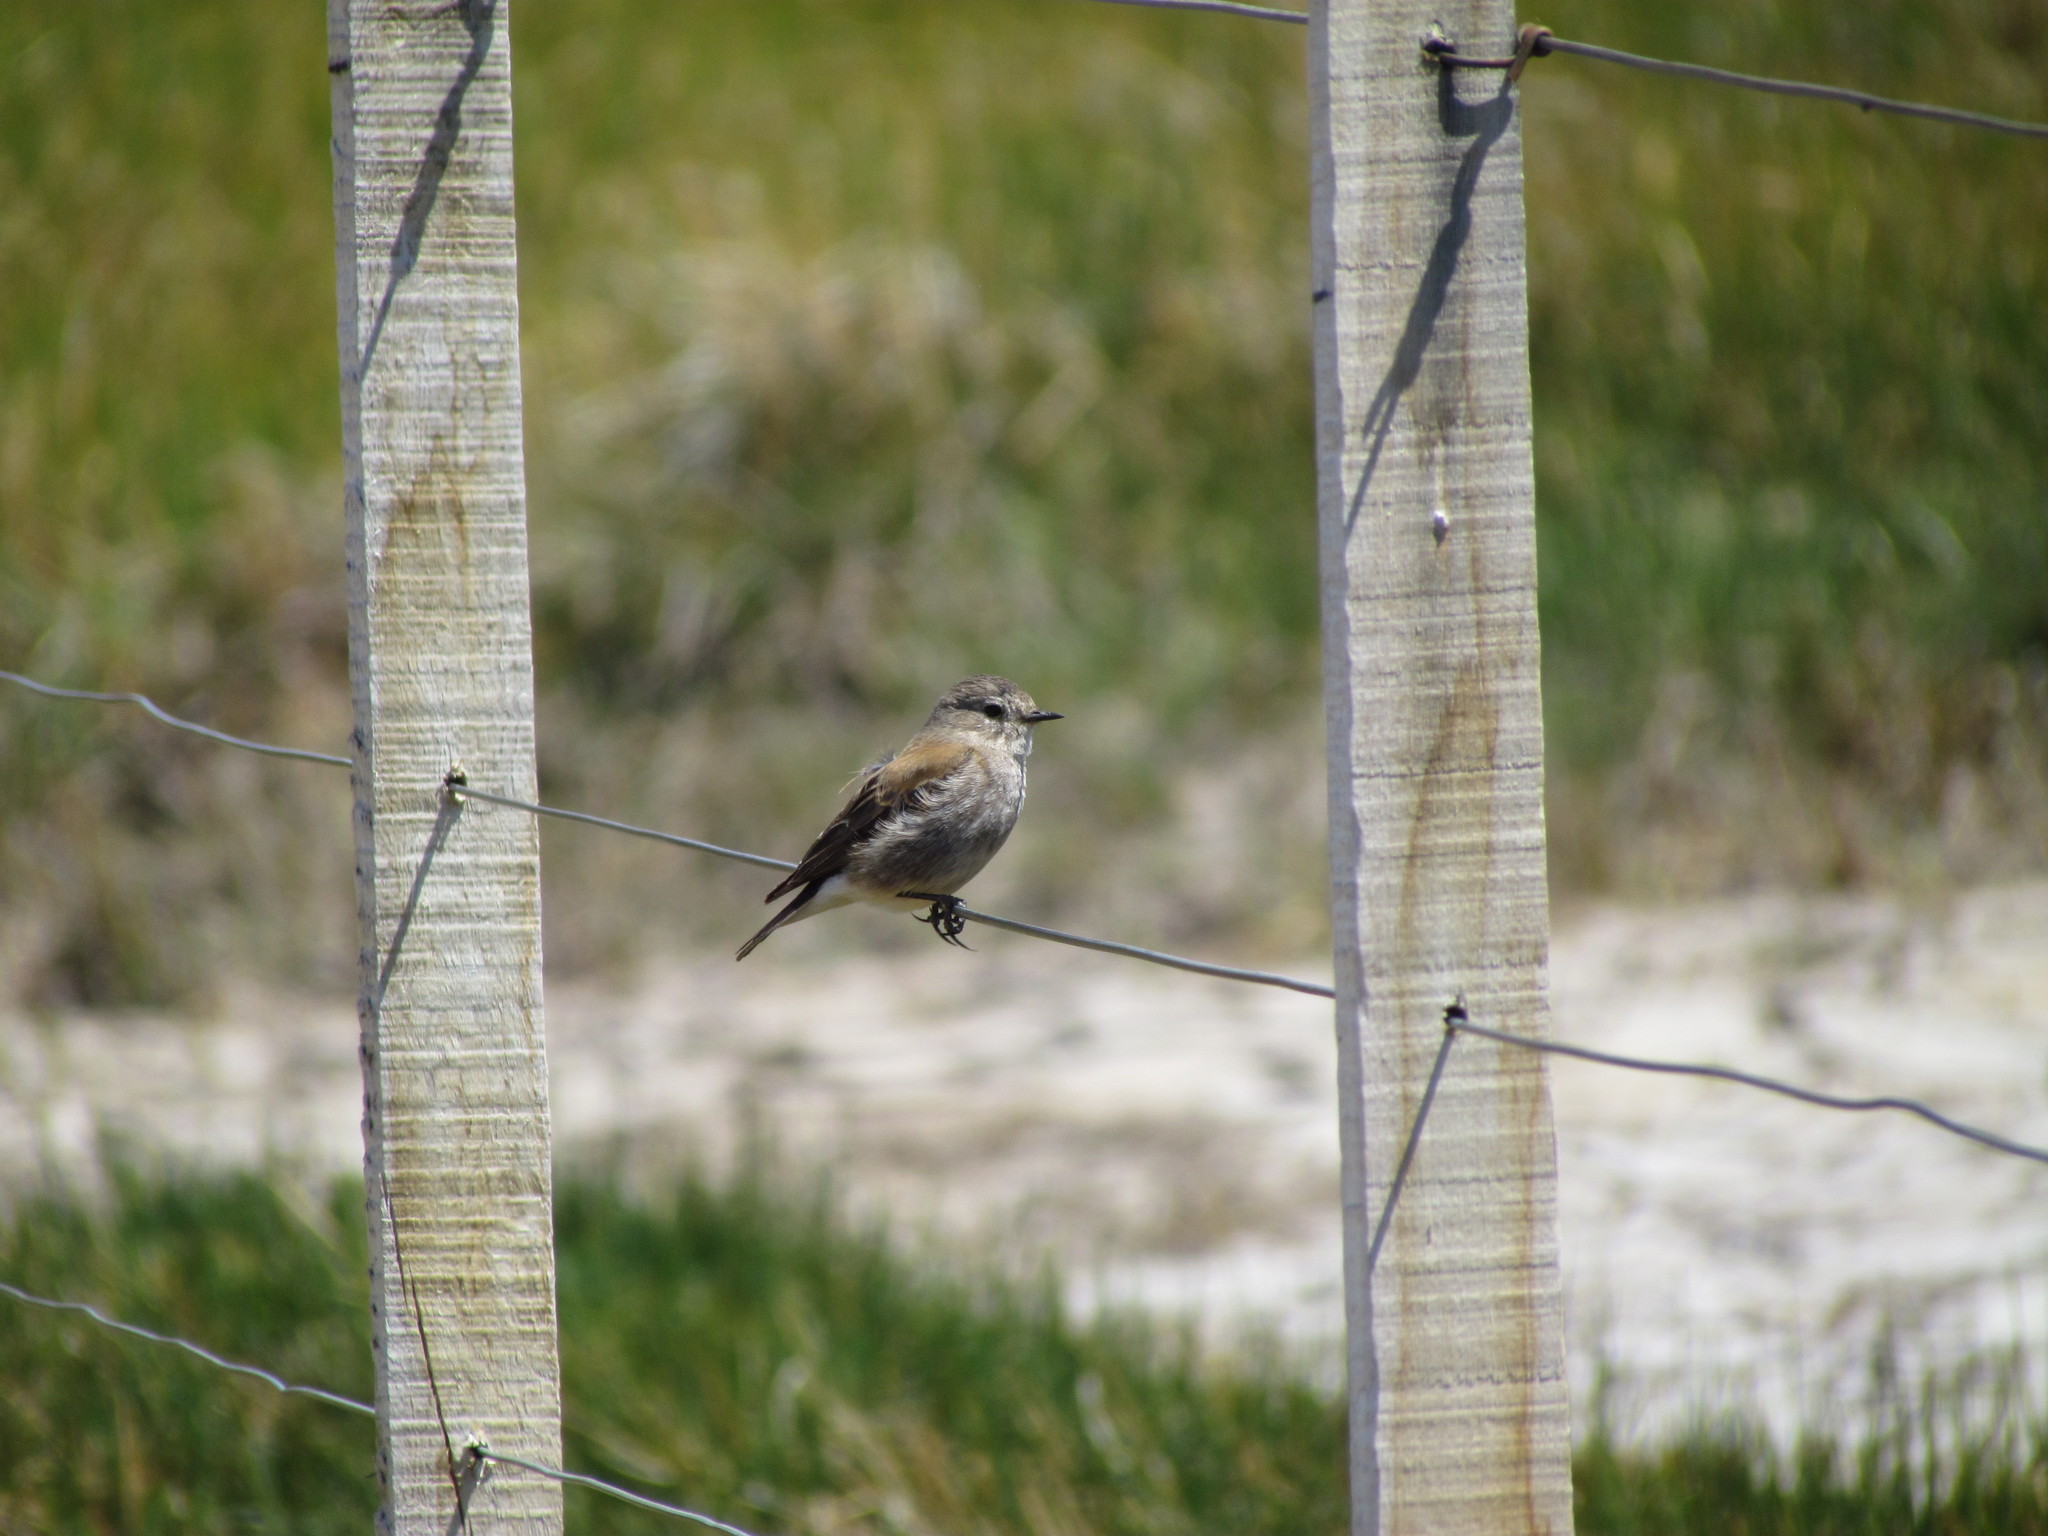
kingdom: Animalia
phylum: Chordata
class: Aves
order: Passeriformes
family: Tyrannidae
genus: Lessonia
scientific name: Lessonia rufa
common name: Austral negrito
